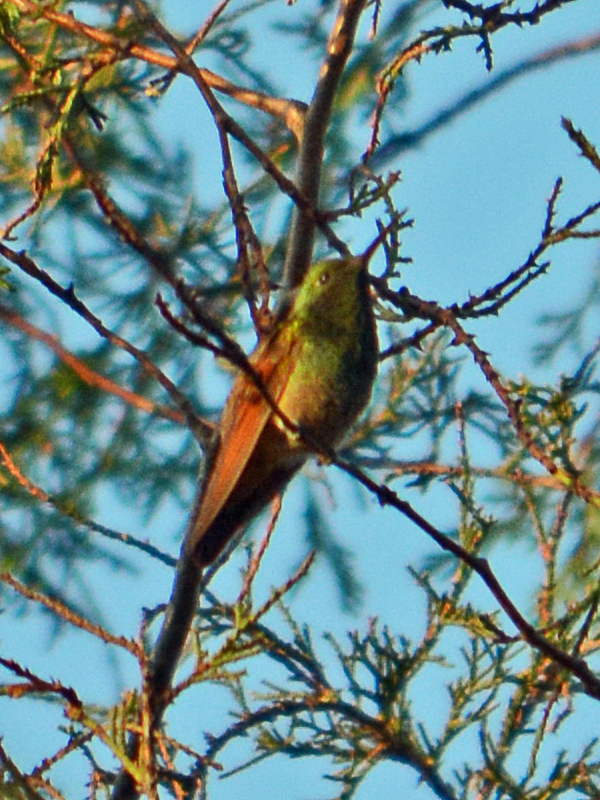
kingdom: Animalia
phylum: Chordata
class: Aves
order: Apodiformes
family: Trochilidae
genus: Saucerottia
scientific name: Saucerottia beryllina
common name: Berylline hummingbird
